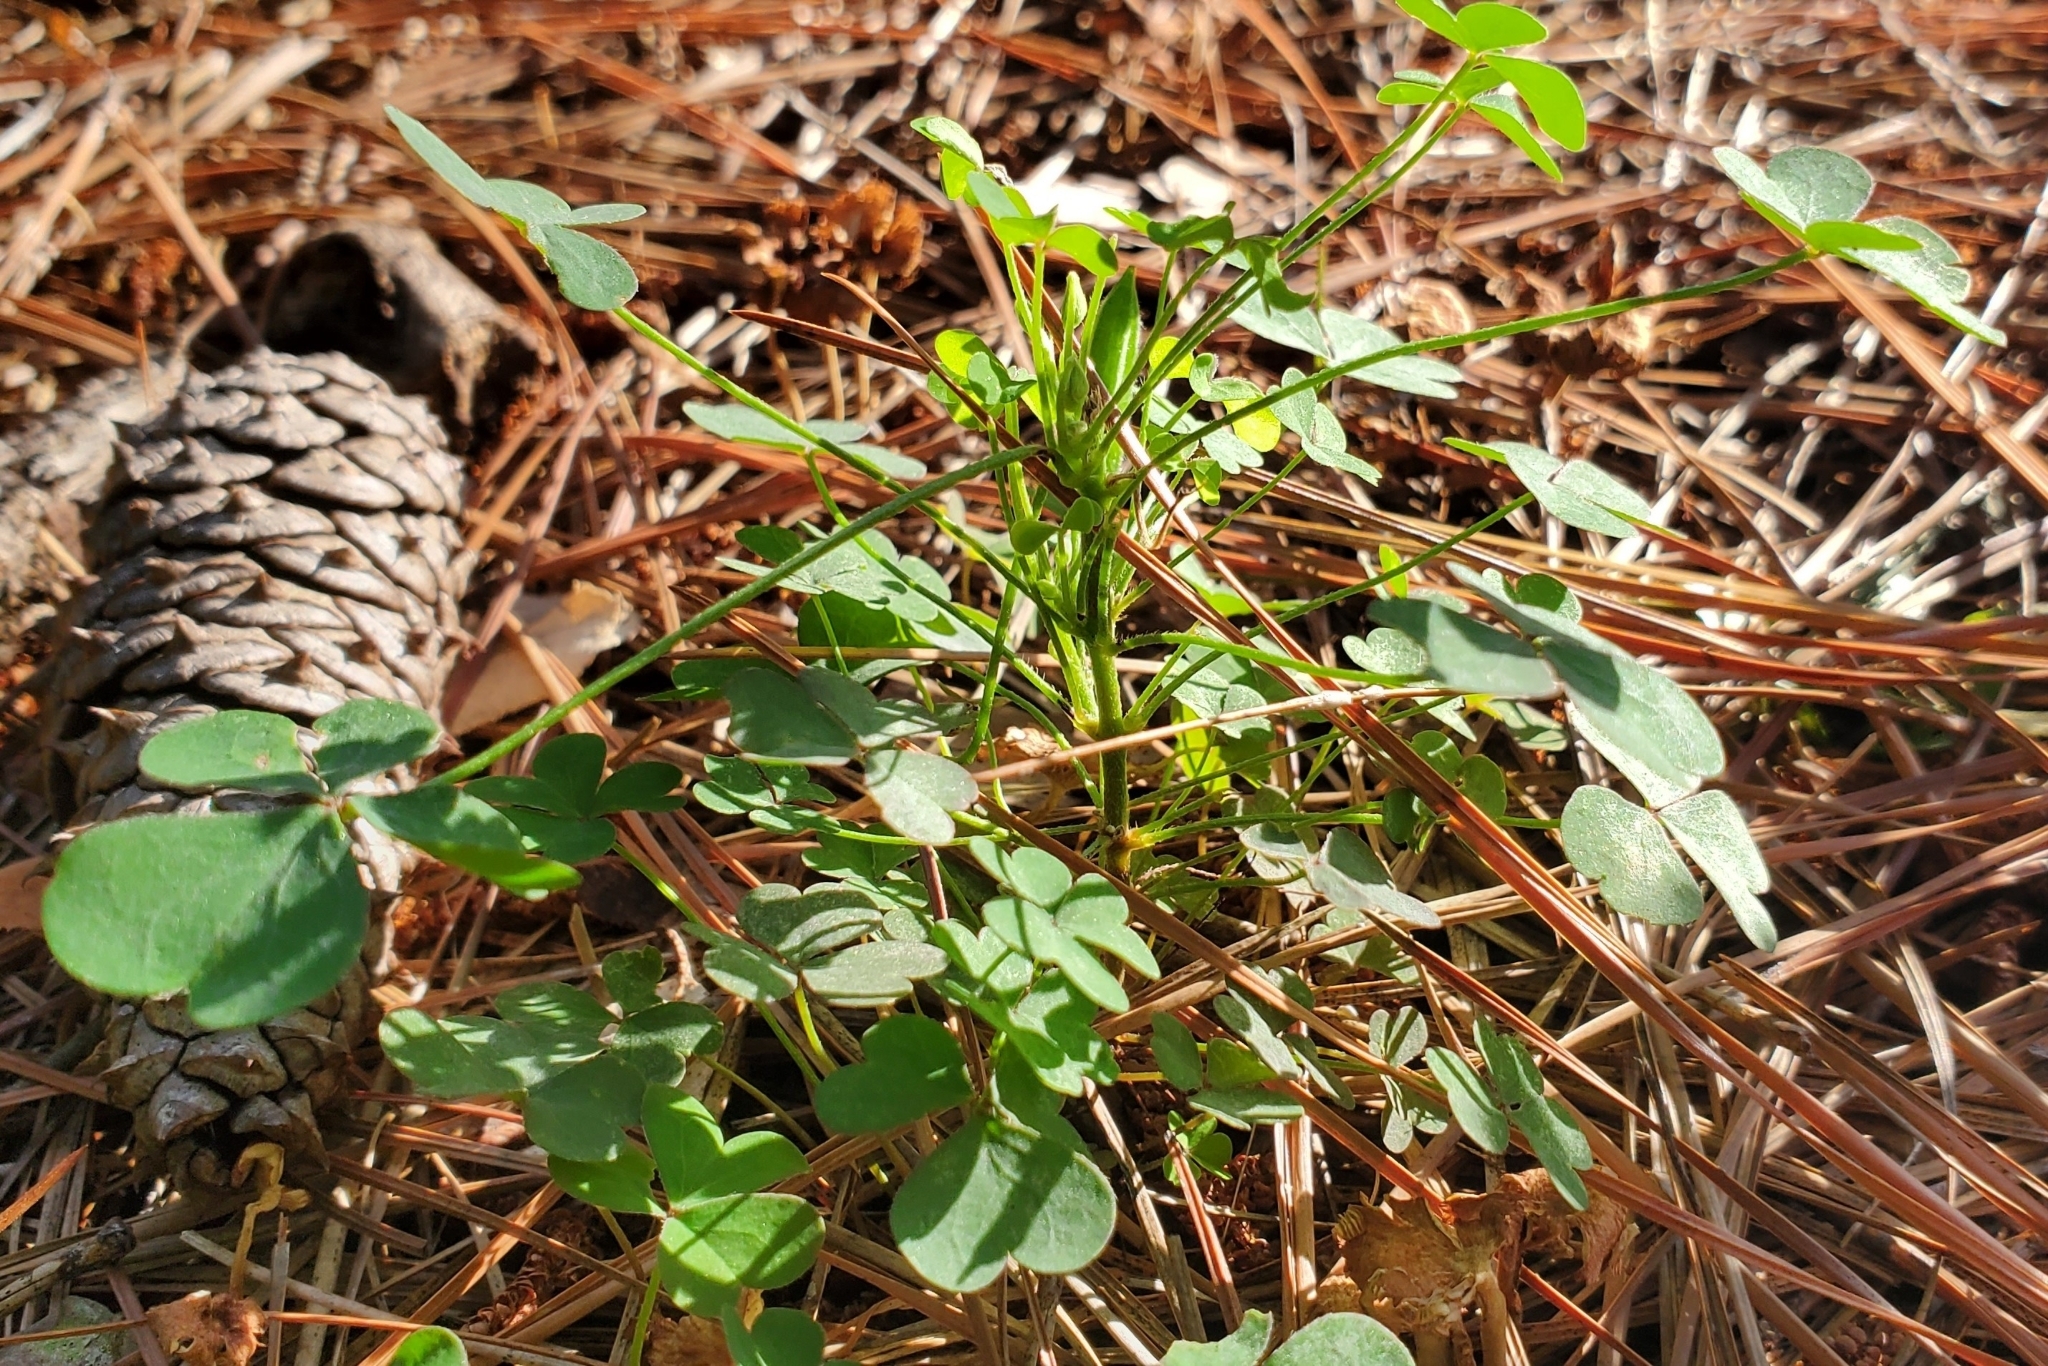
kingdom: Plantae
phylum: Tracheophyta
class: Magnoliopsida
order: Oxalidales
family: Oxalidaceae
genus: Oxalis
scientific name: Oxalis dillenii
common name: Sussex yellow-sorrel
